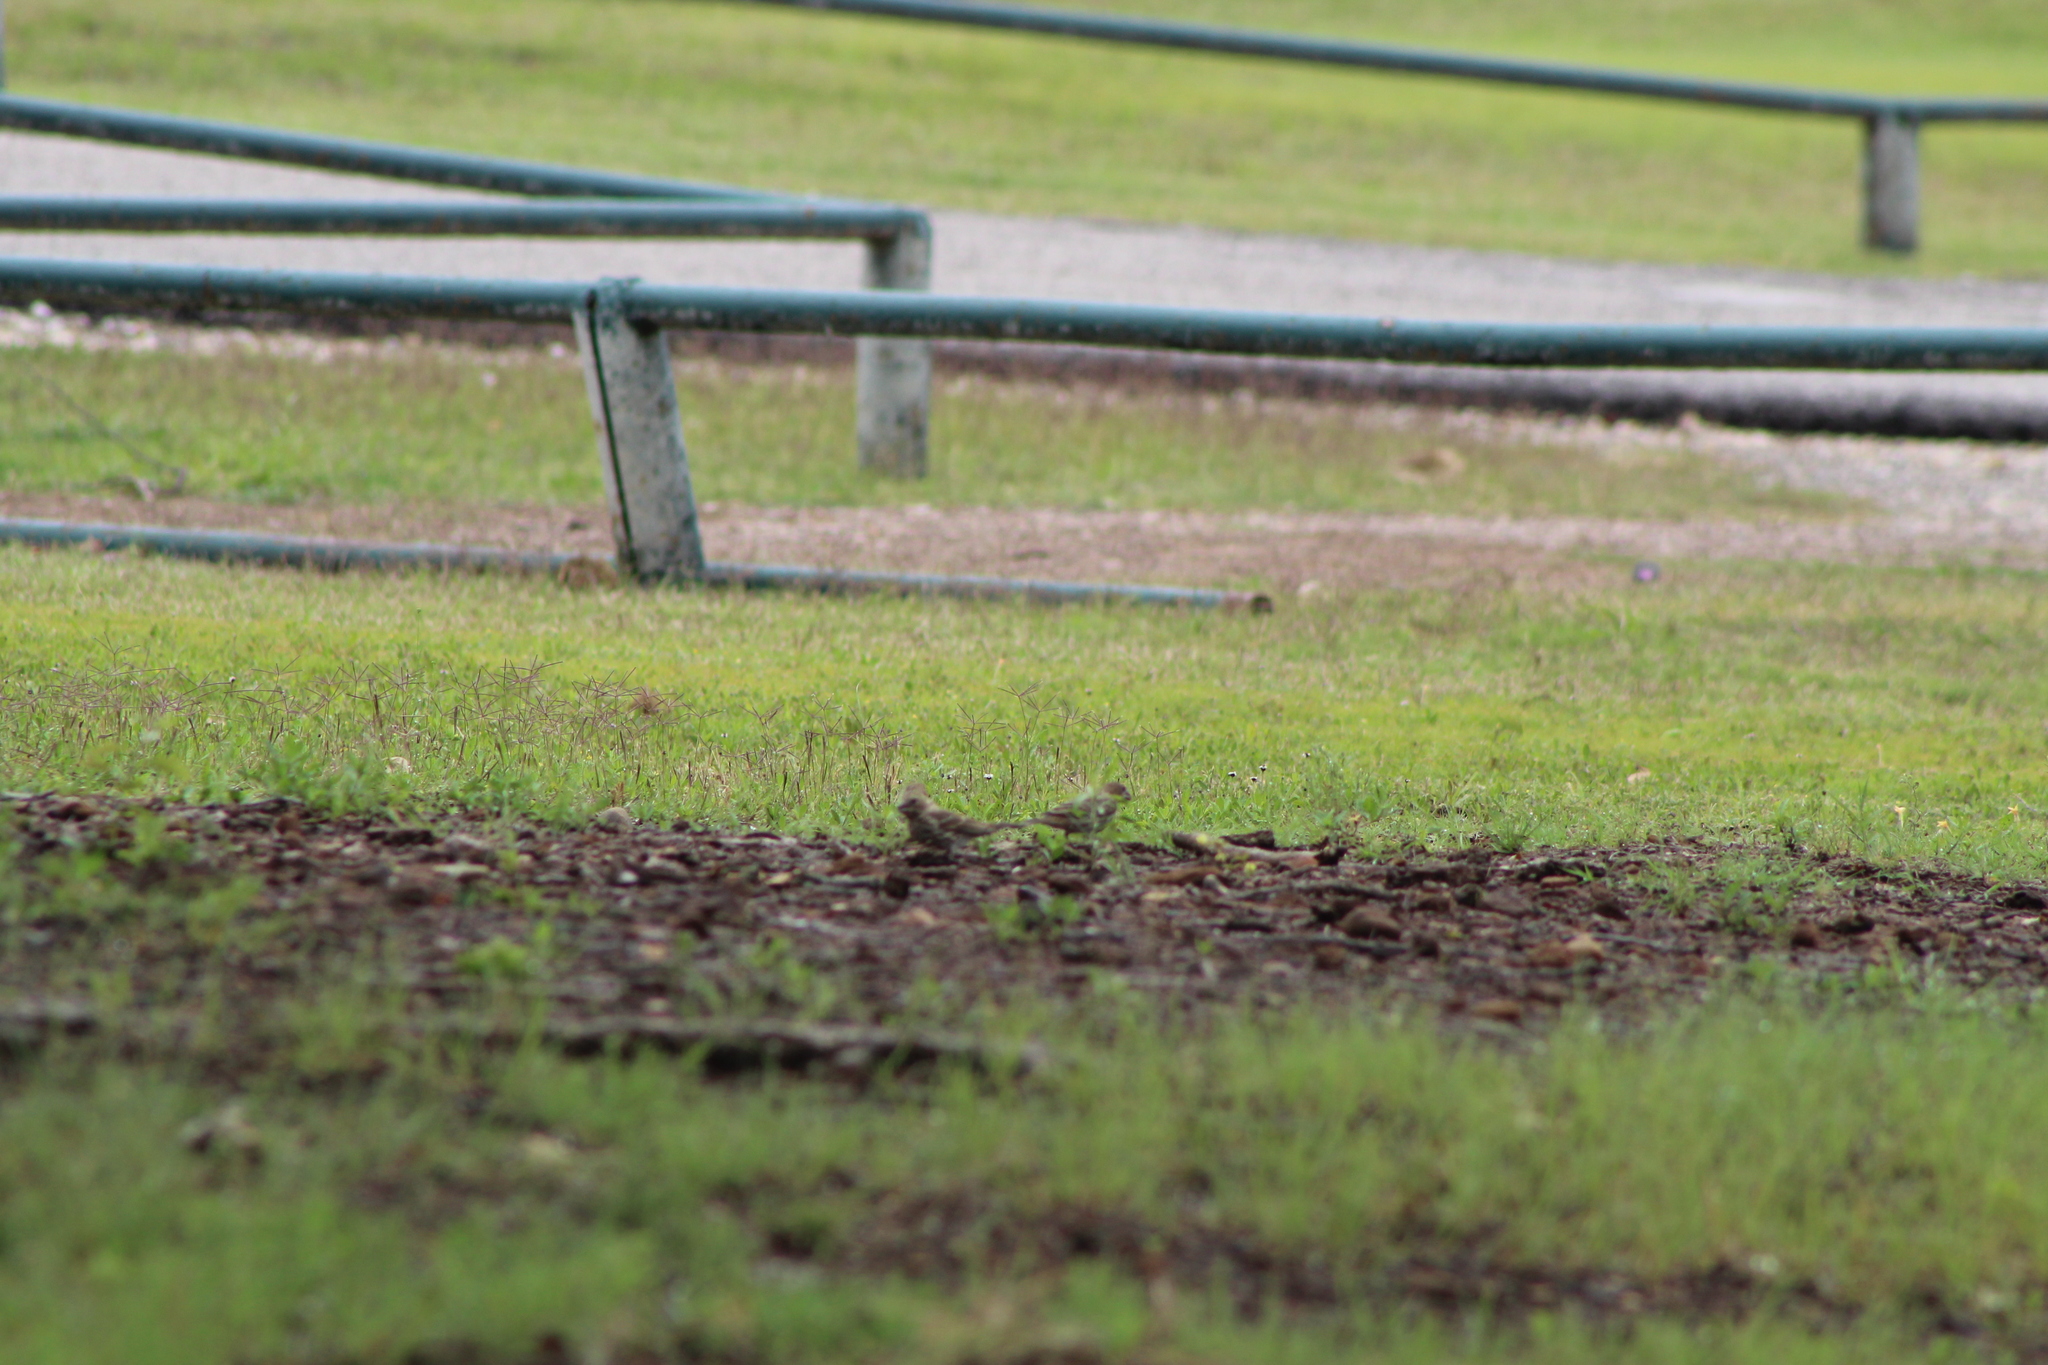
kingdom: Animalia
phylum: Chordata
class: Aves
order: Passeriformes
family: Fringillidae
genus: Haemorhous
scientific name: Haemorhous mexicanus
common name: House finch
